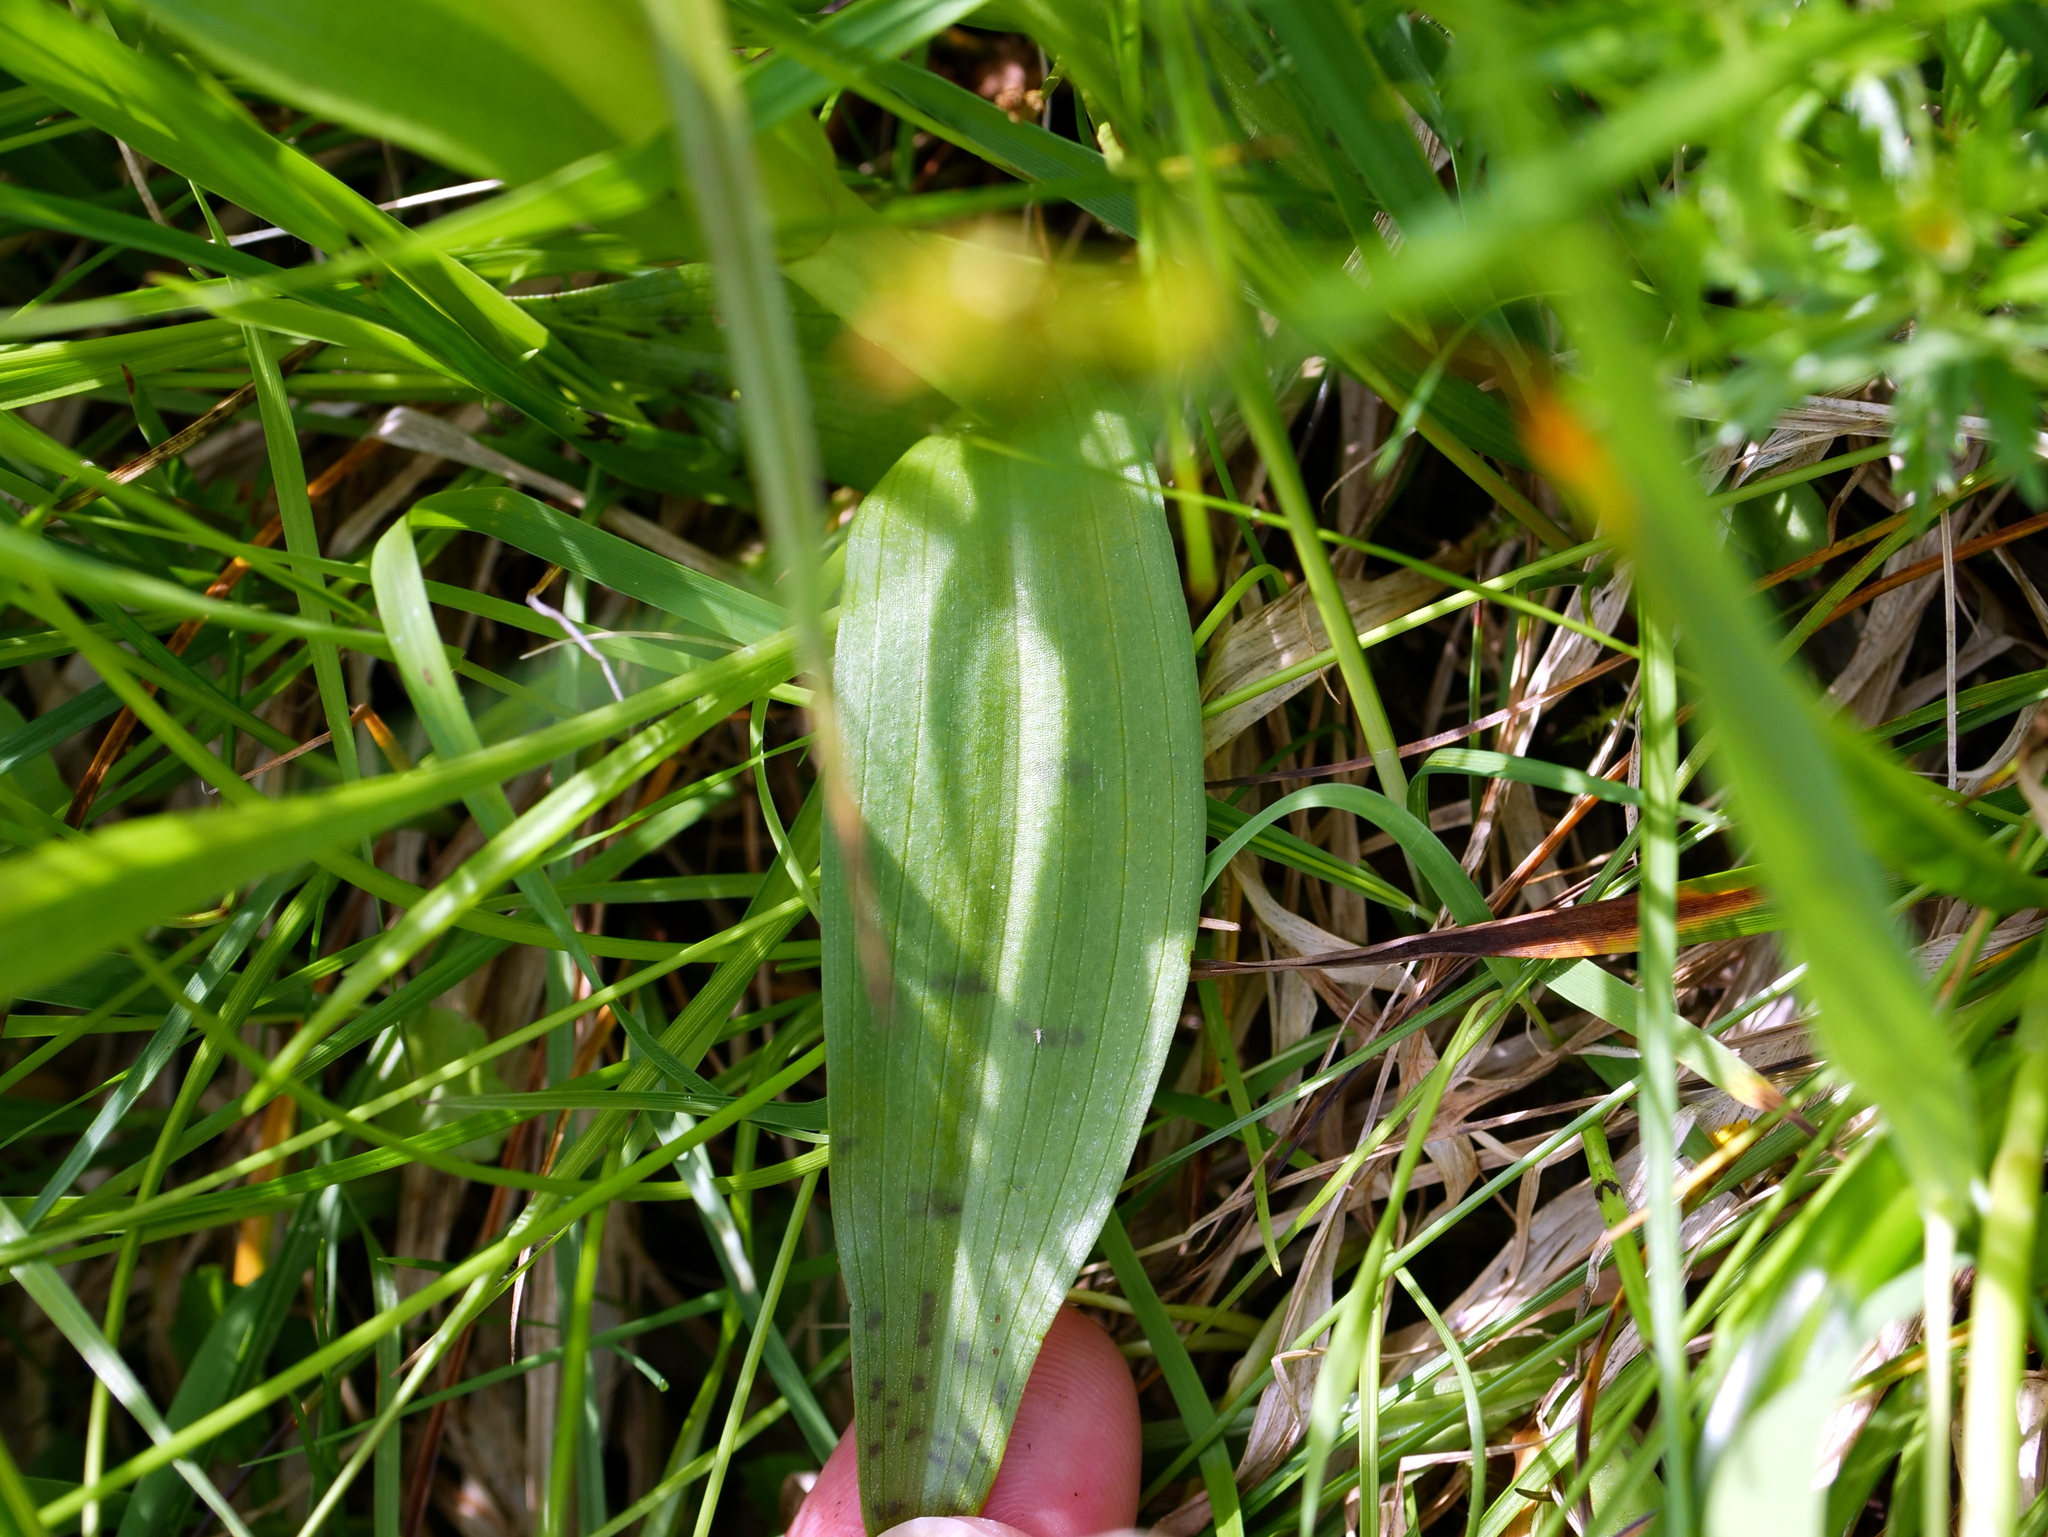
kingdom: Plantae
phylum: Tracheophyta
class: Liliopsida
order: Asparagales
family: Orchidaceae
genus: Dactylorhiza
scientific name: Dactylorhiza majalis
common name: Marsh orchid
